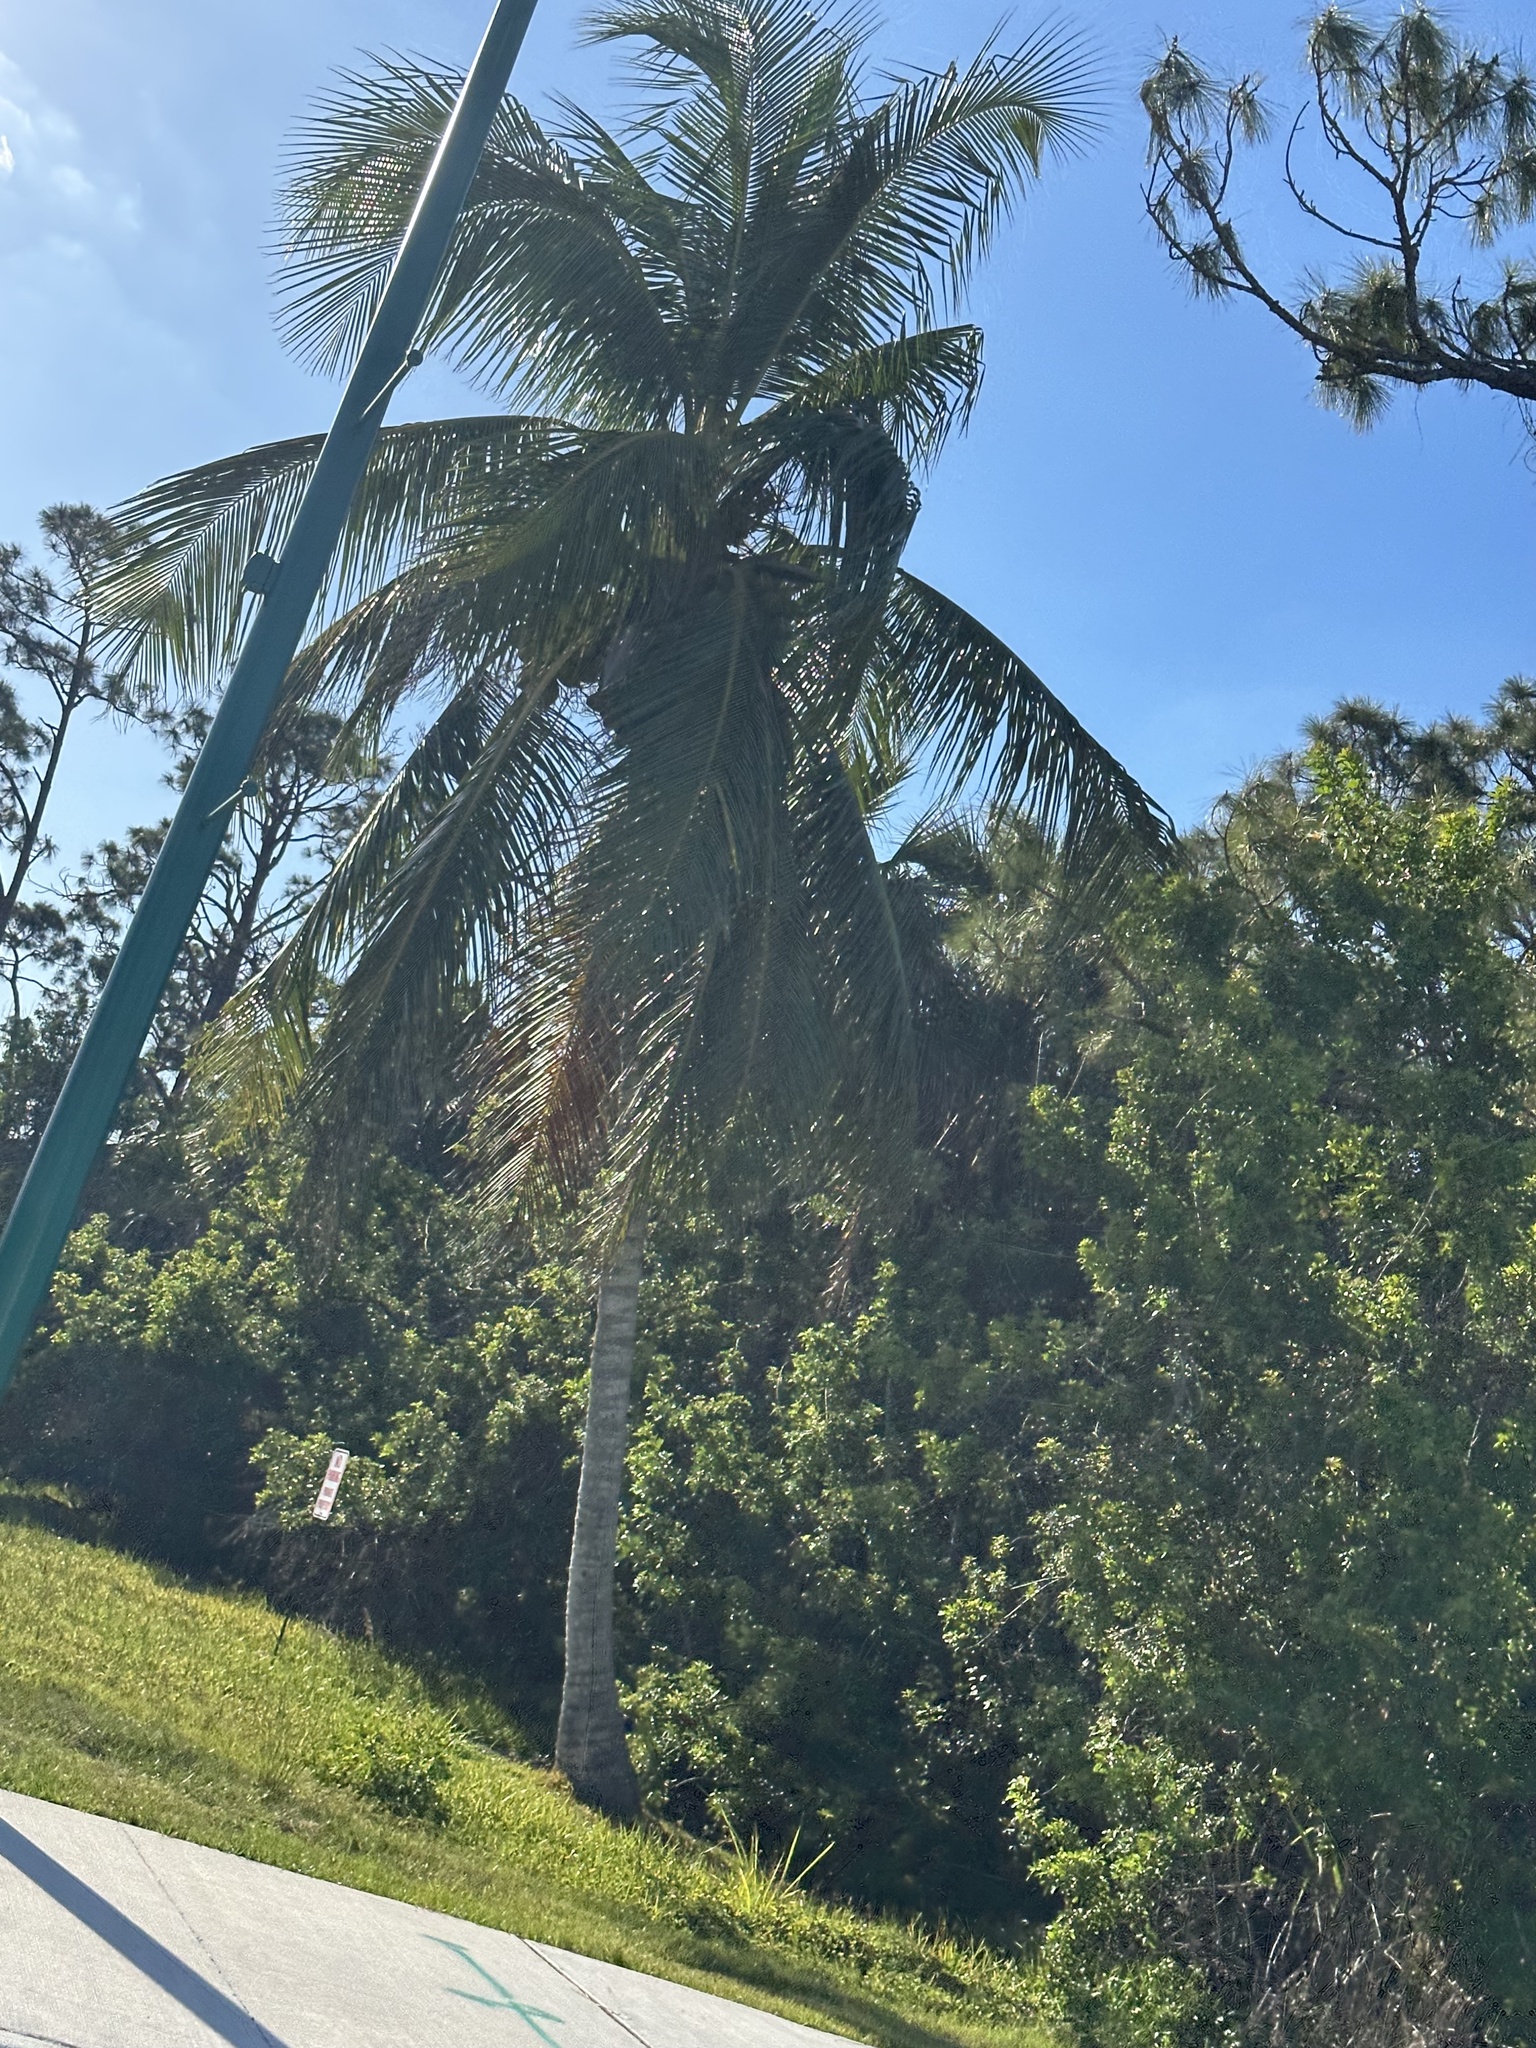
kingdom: Plantae
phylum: Tracheophyta
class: Liliopsida
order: Arecales
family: Arecaceae
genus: Cocos
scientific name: Cocos nucifera
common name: Coconut palm
